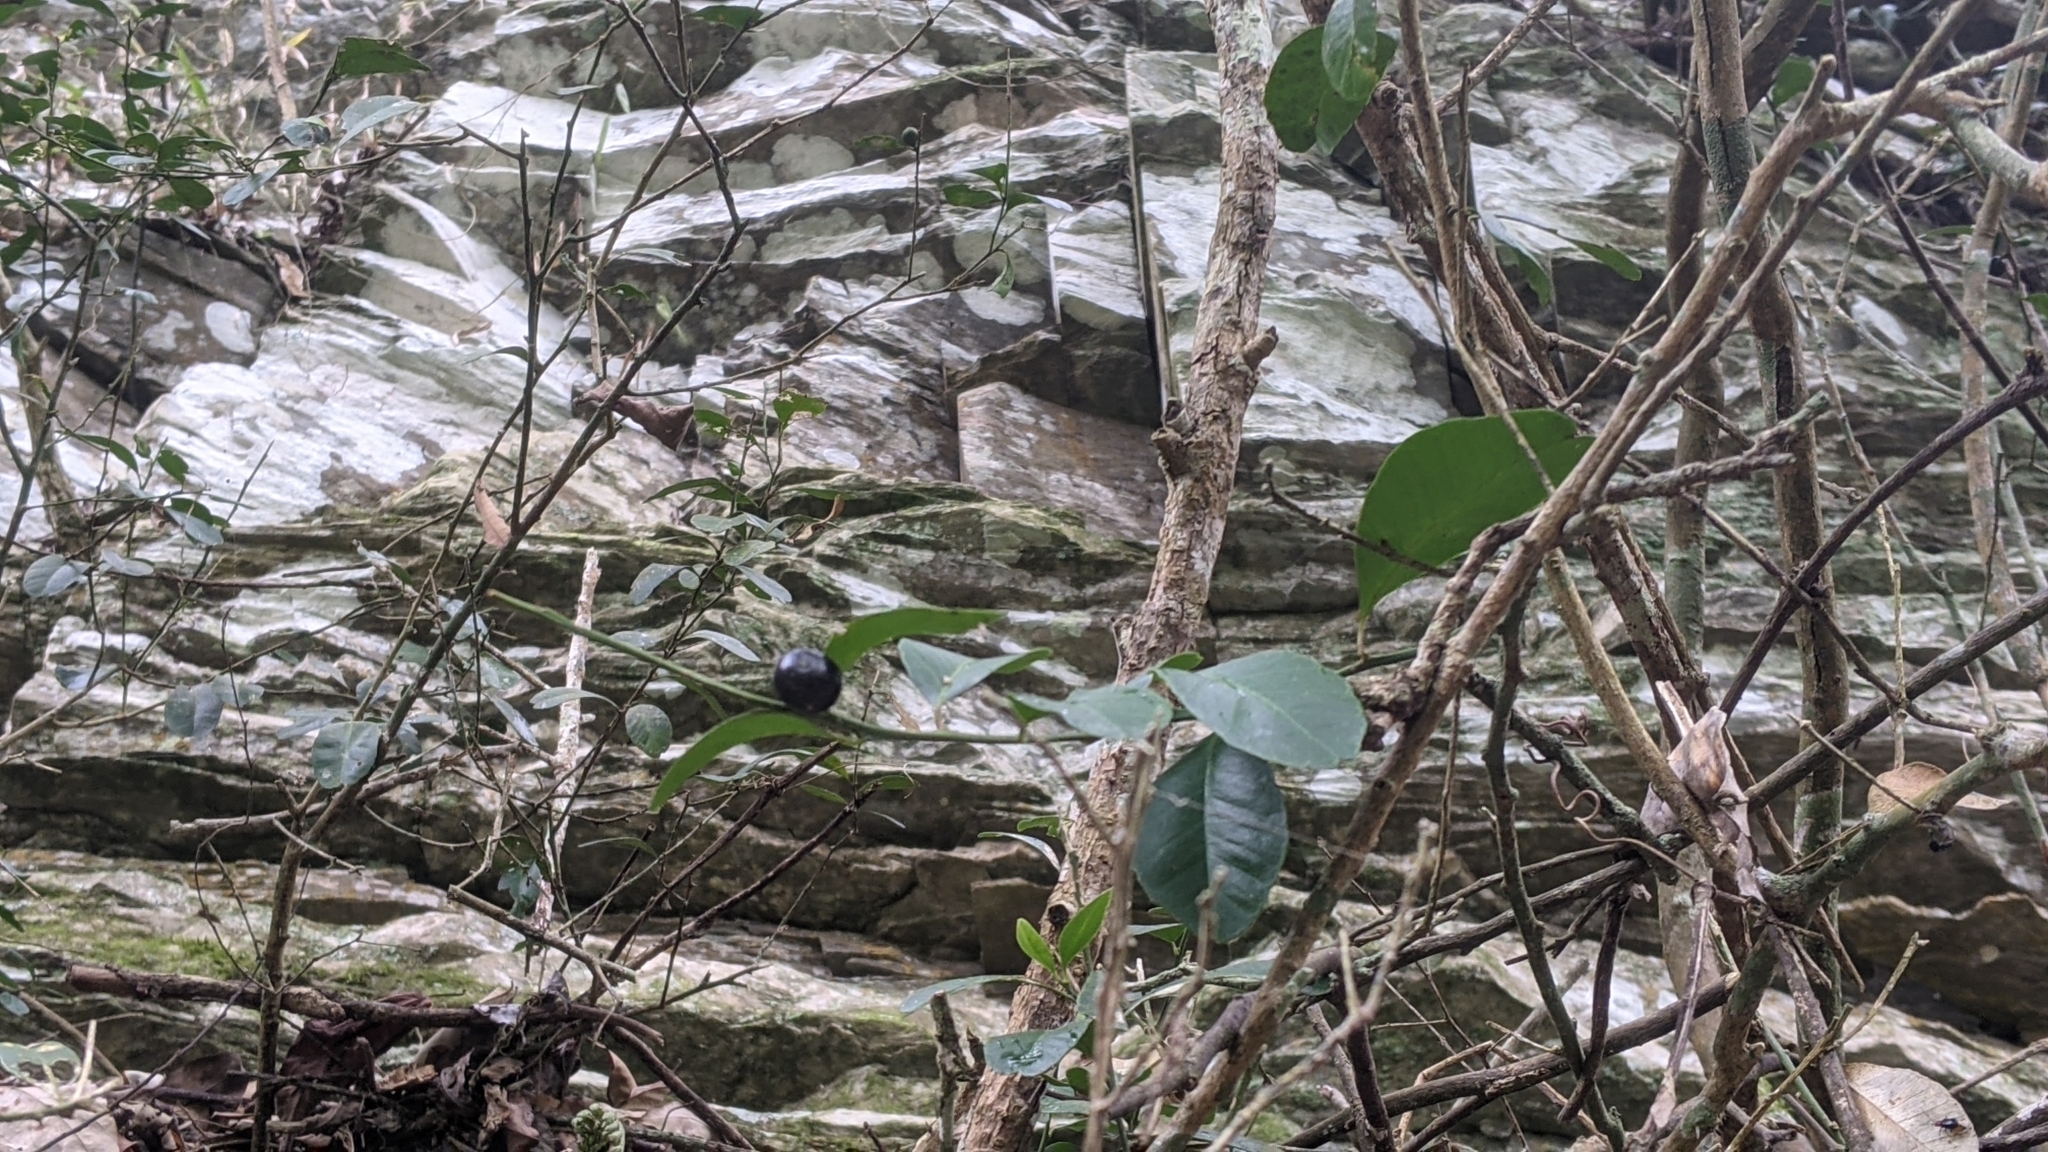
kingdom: Plantae
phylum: Tracheophyta
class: Magnoliopsida
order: Sapindales
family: Rutaceae
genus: Atalantia
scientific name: Atalantia buxifolia
